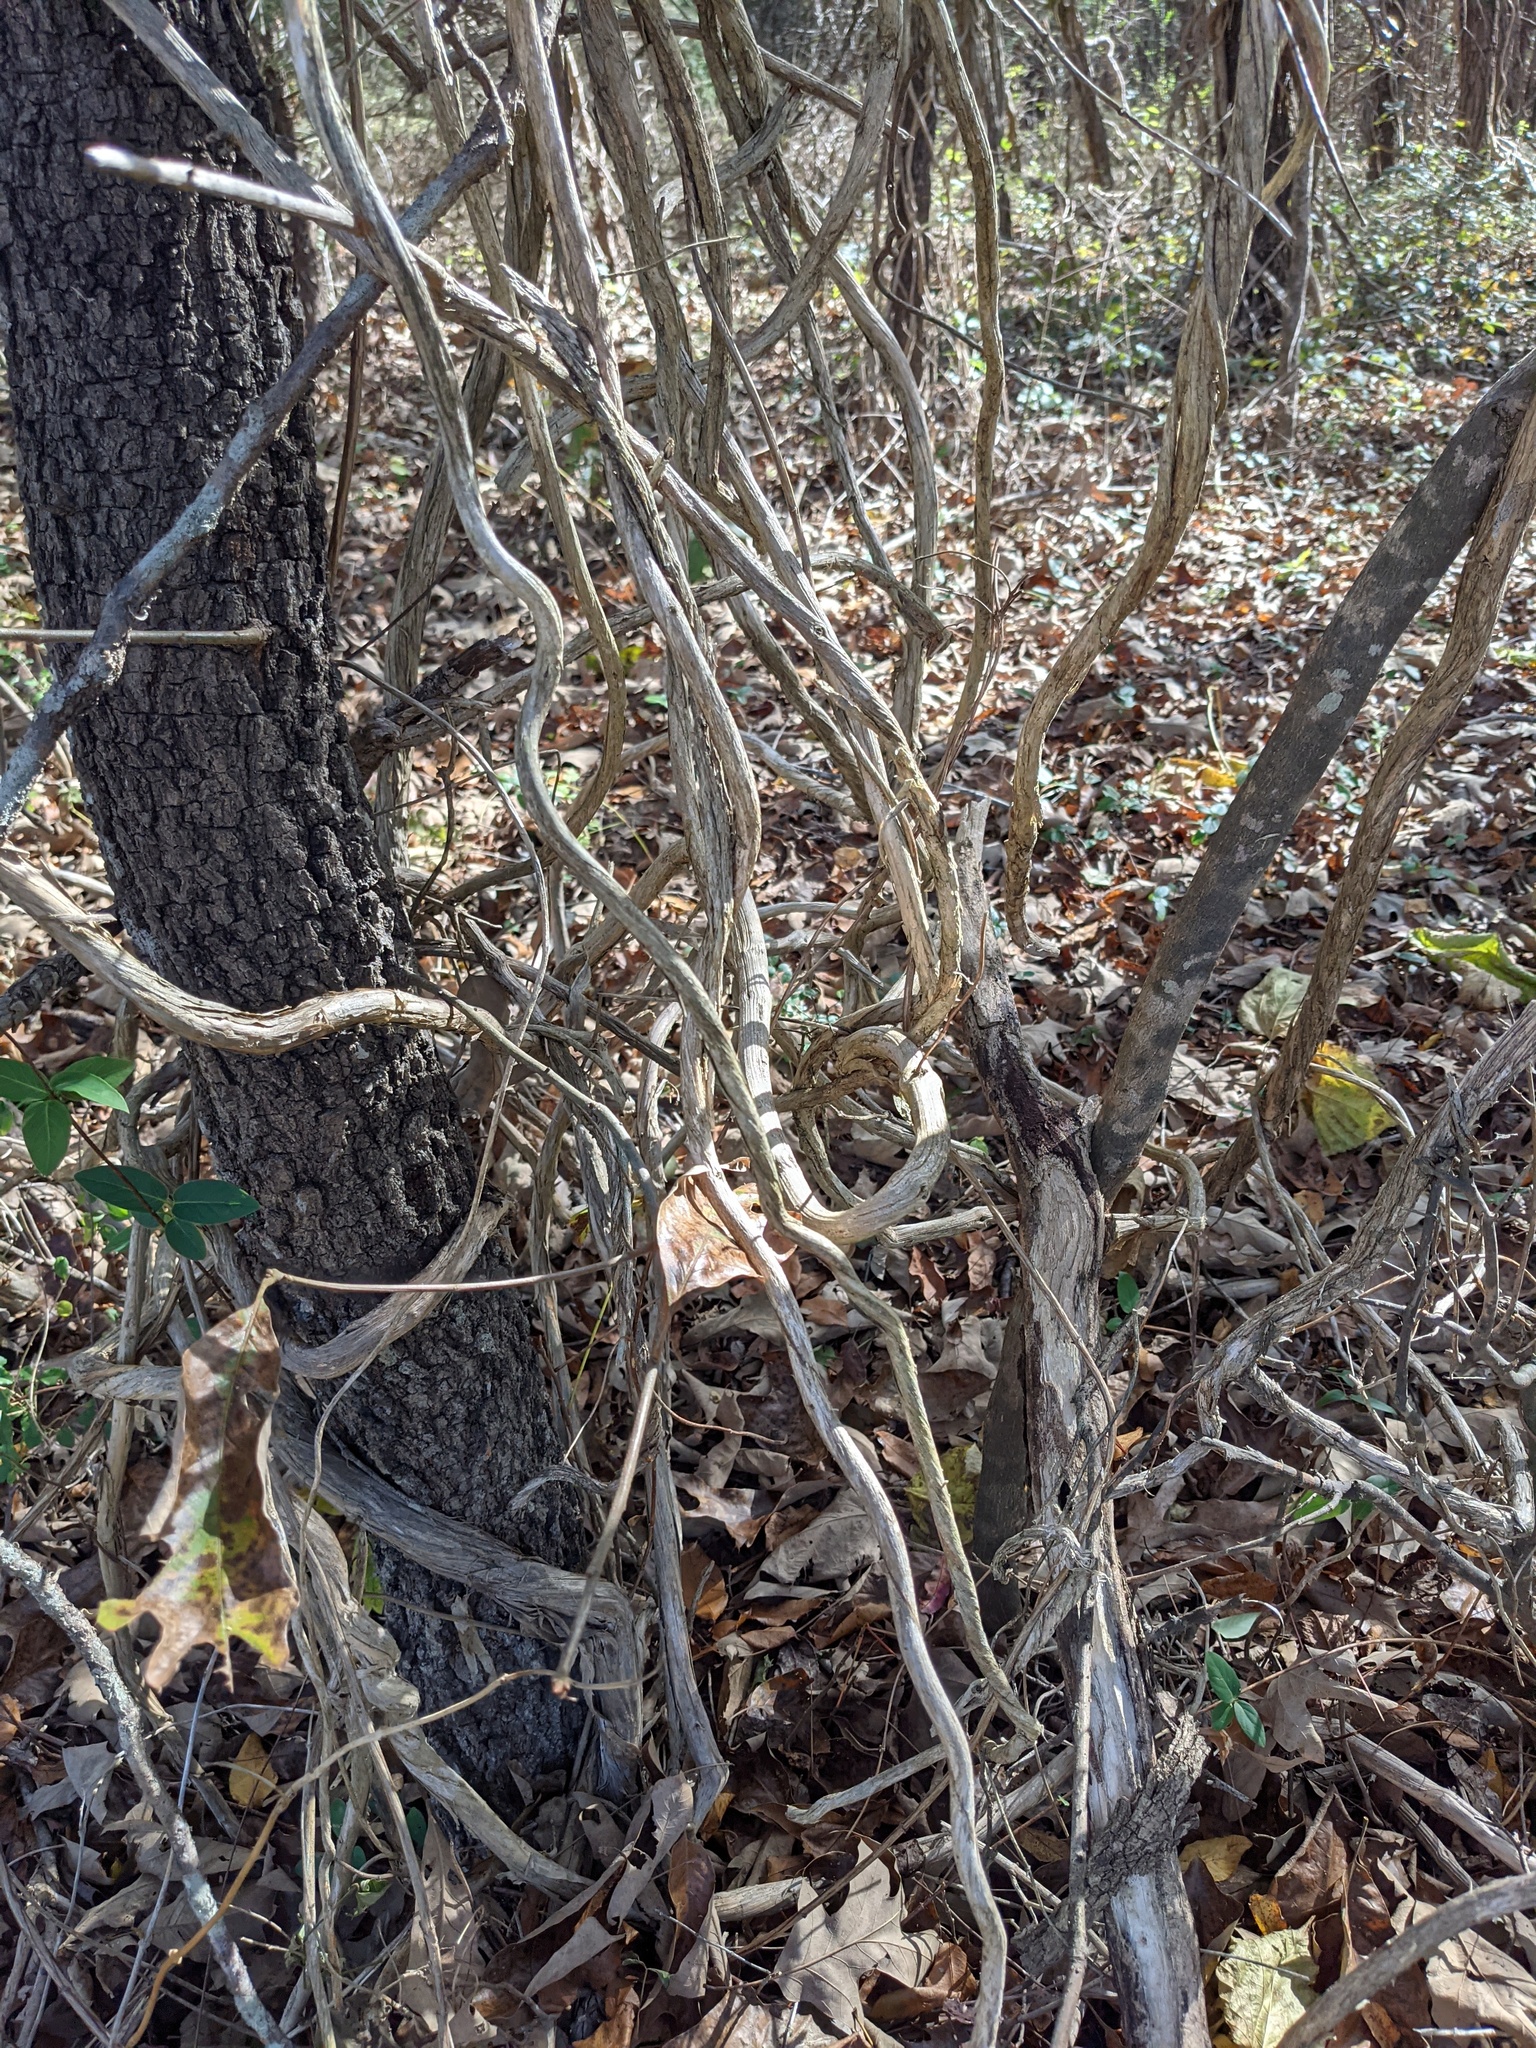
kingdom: Plantae
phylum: Tracheophyta
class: Magnoliopsida
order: Dipsacales
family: Caprifoliaceae
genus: Lonicera
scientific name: Lonicera japonica
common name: Japanese honeysuckle
